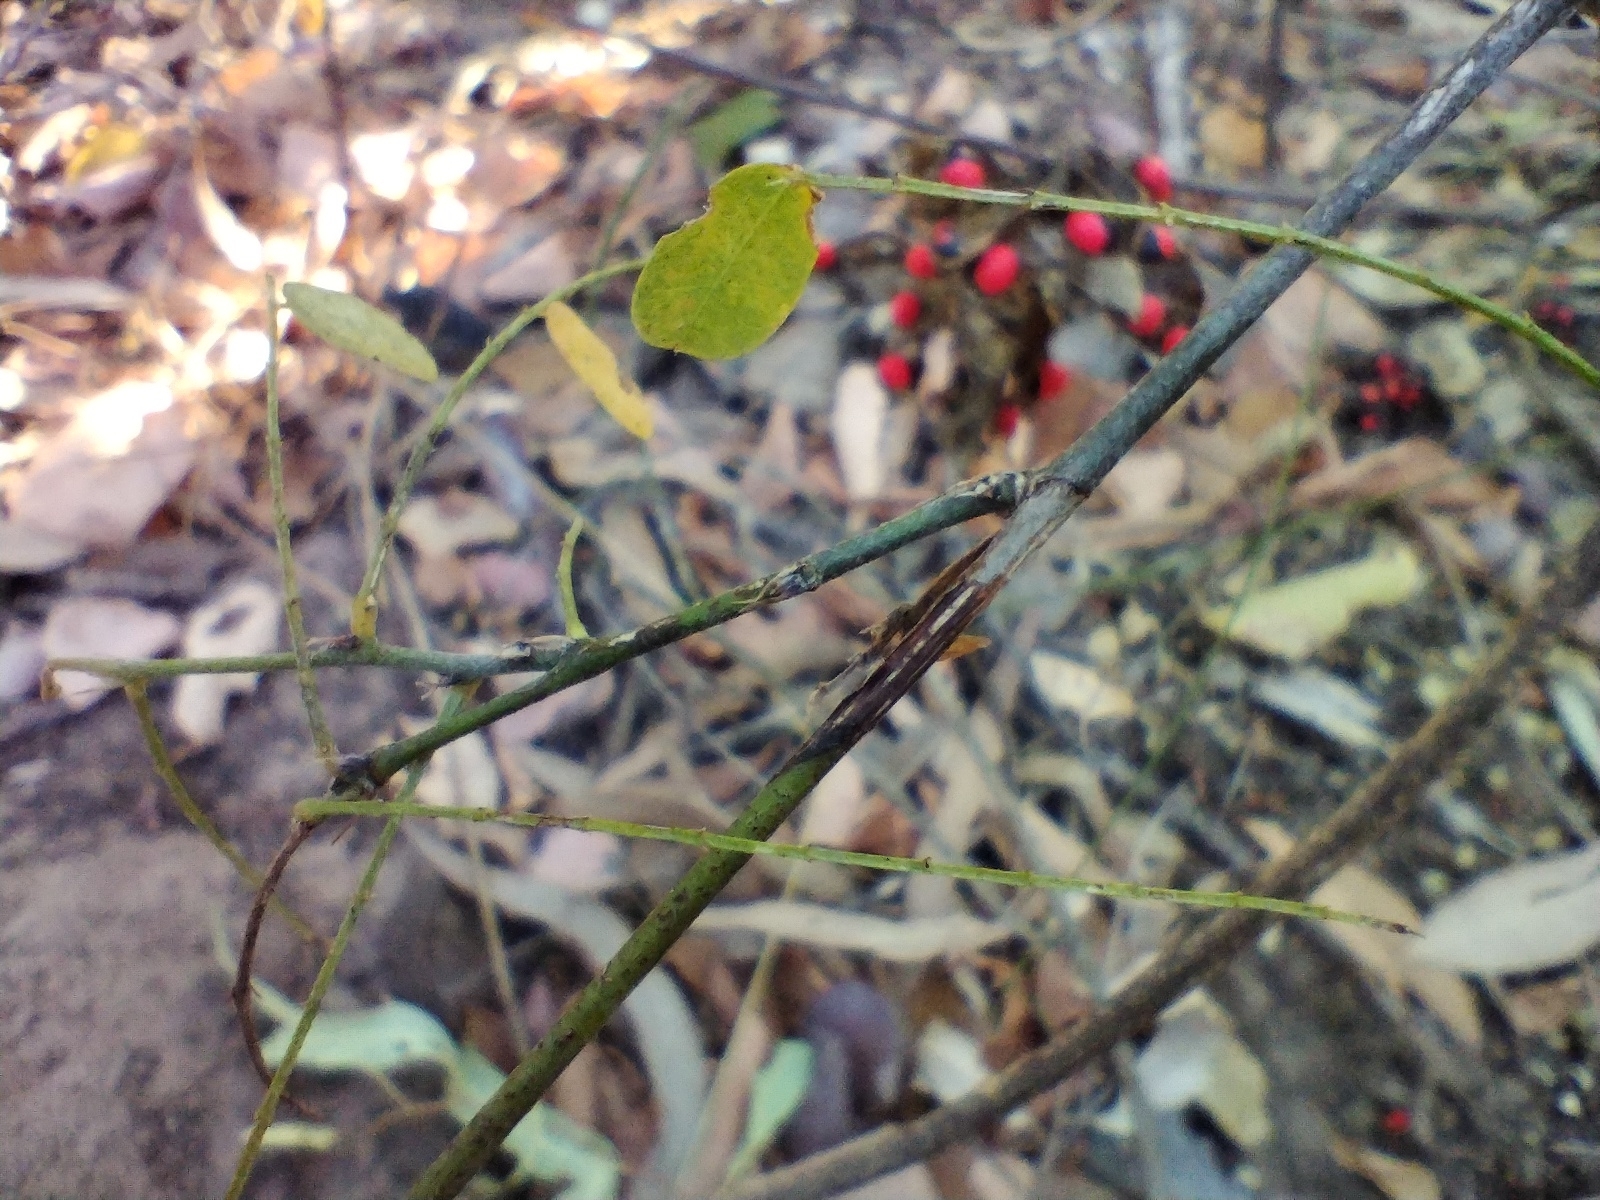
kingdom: Plantae
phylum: Tracheophyta
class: Magnoliopsida
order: Fabales
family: Fabaceae
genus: Abrus
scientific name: Abrus precatorius
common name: Rosarypea
